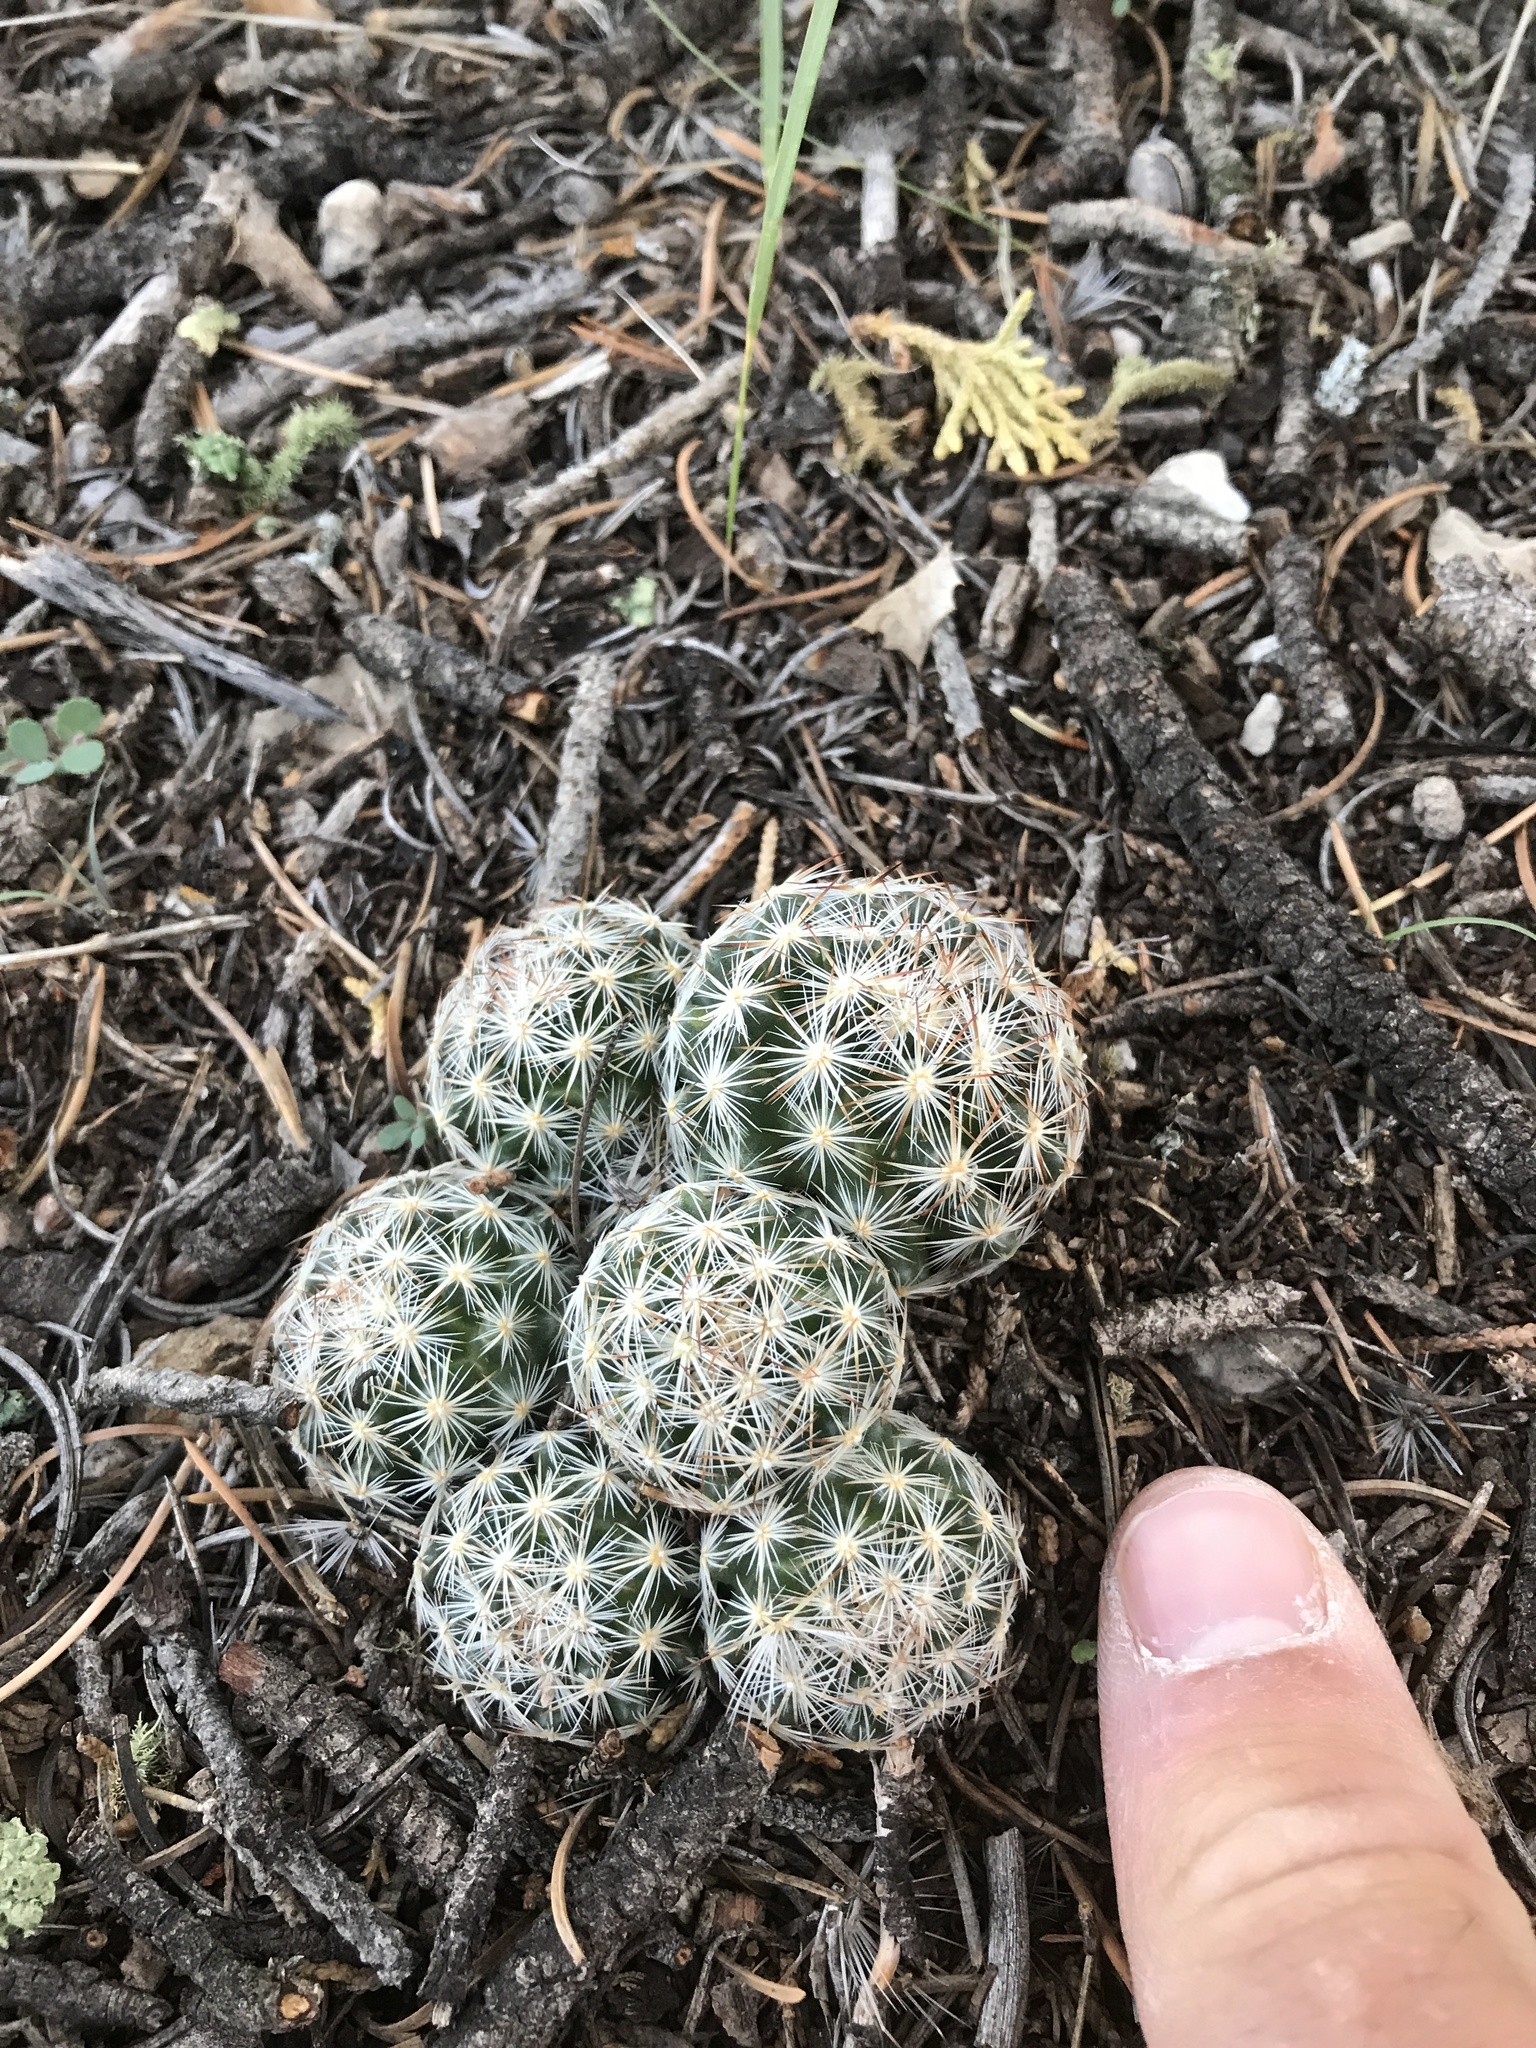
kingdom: Plantae
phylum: Tracheophyta
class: Magnoliopsida
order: Caryophyllales
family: Cactaceae
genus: Pelecyphora
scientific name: Pelecyphora vivipara
